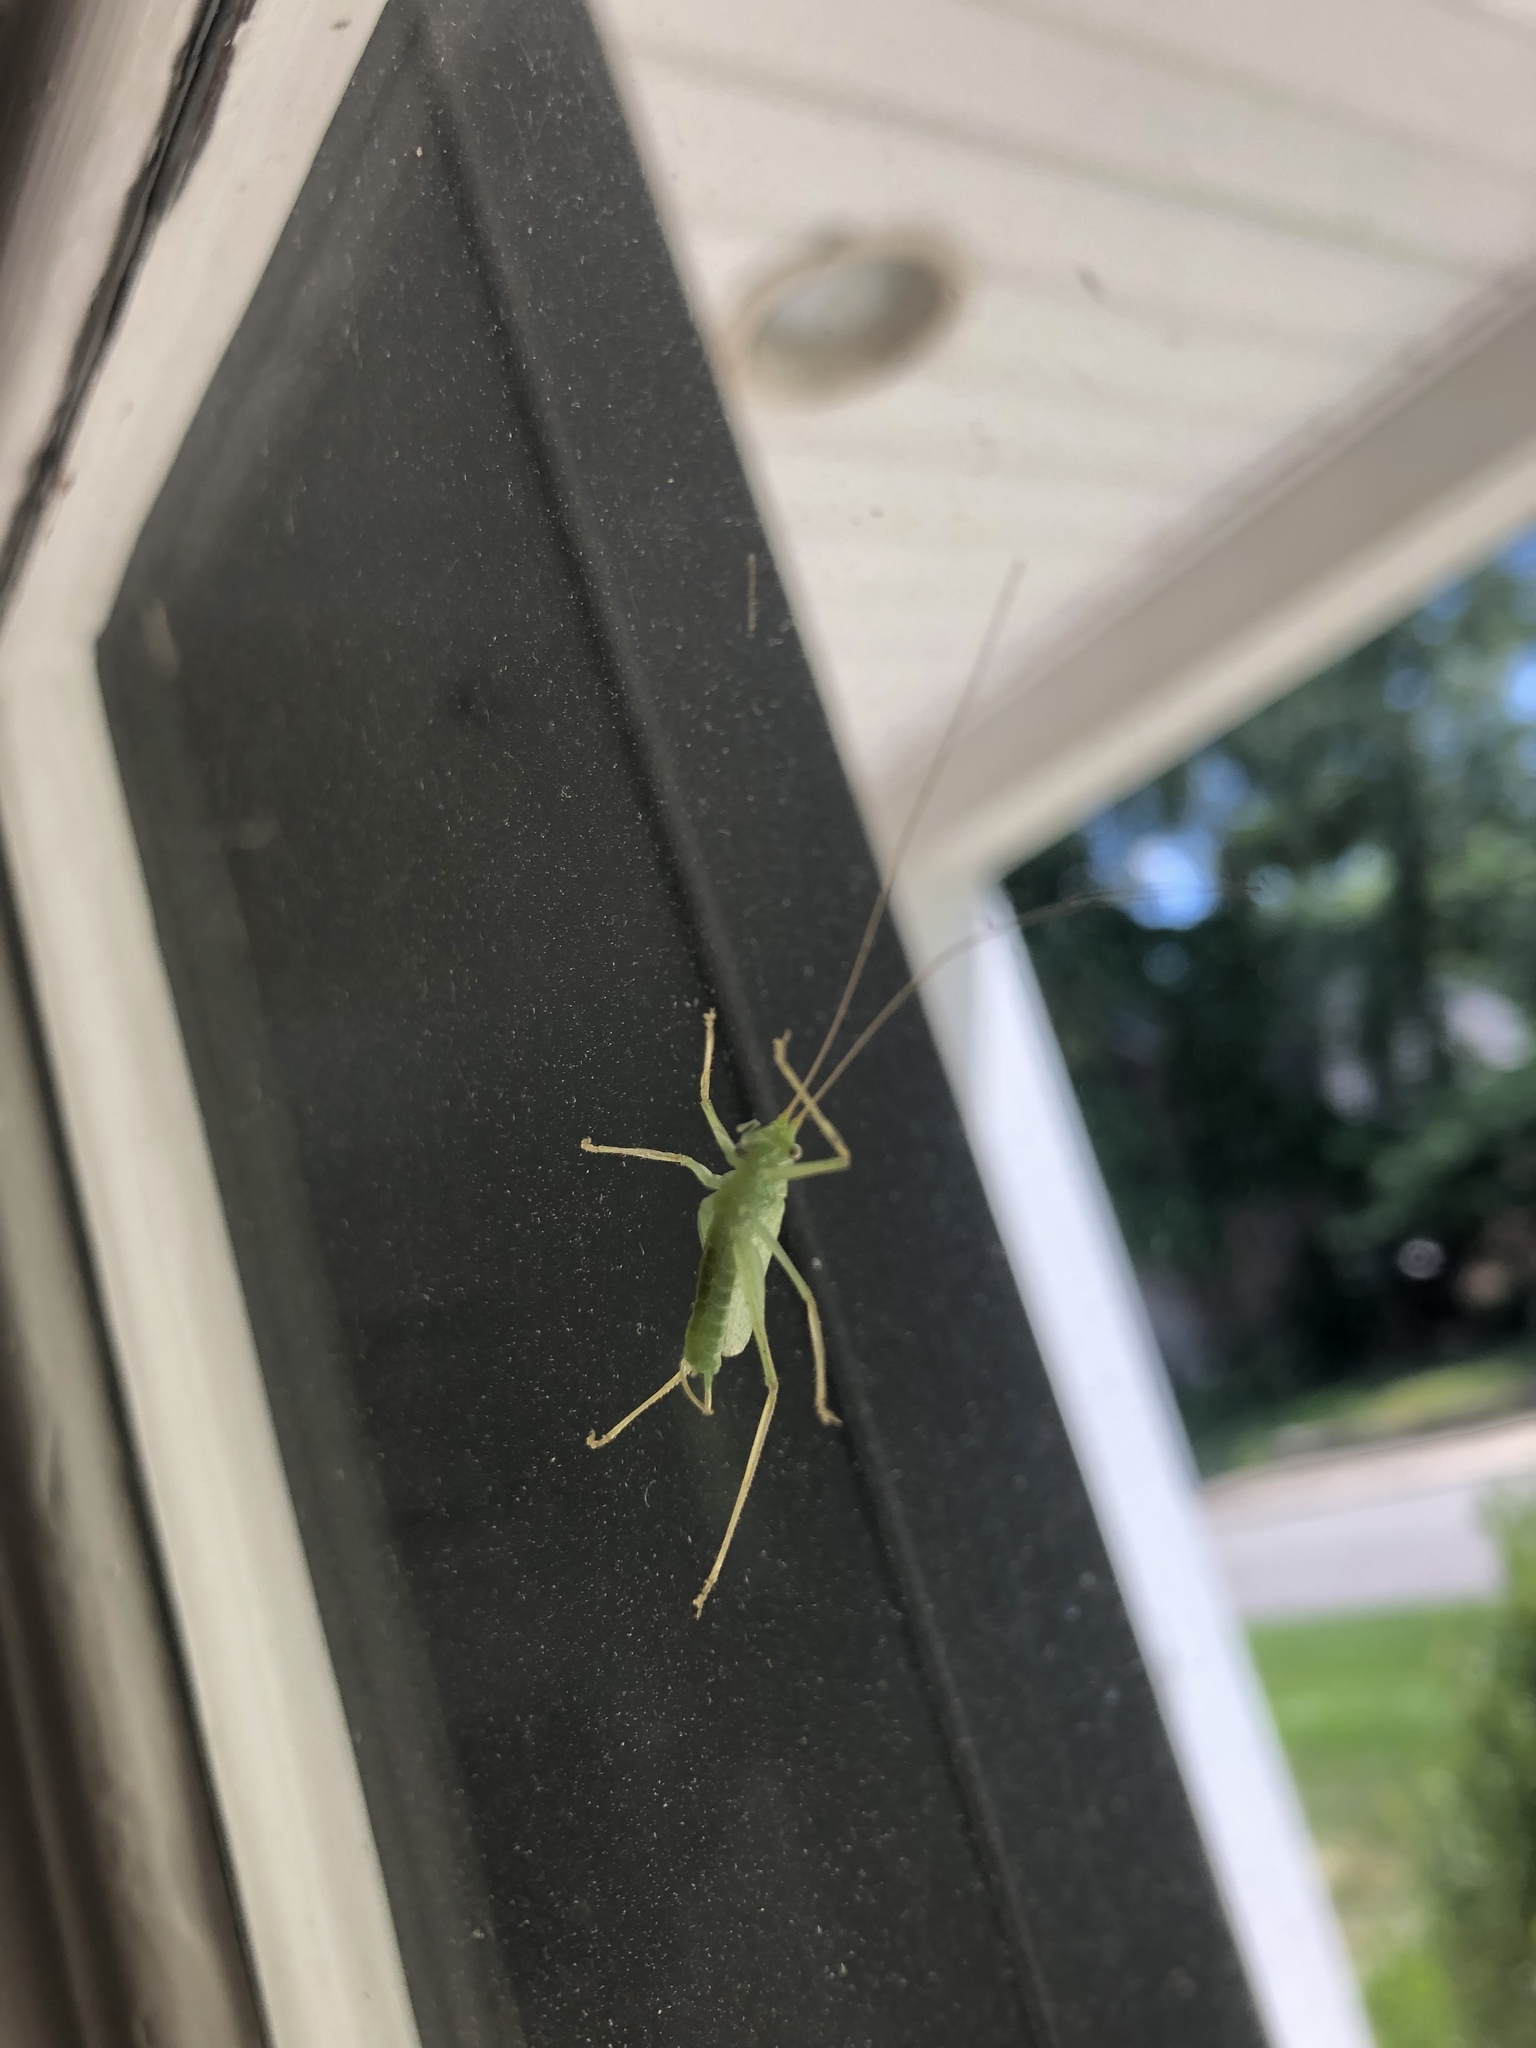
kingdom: Animalia
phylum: Arthropoda
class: Insecta
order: Orthoptera
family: Tettigoniidae
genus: Meconema
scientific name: Meconema thalassinum
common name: Oak bush-cricket
